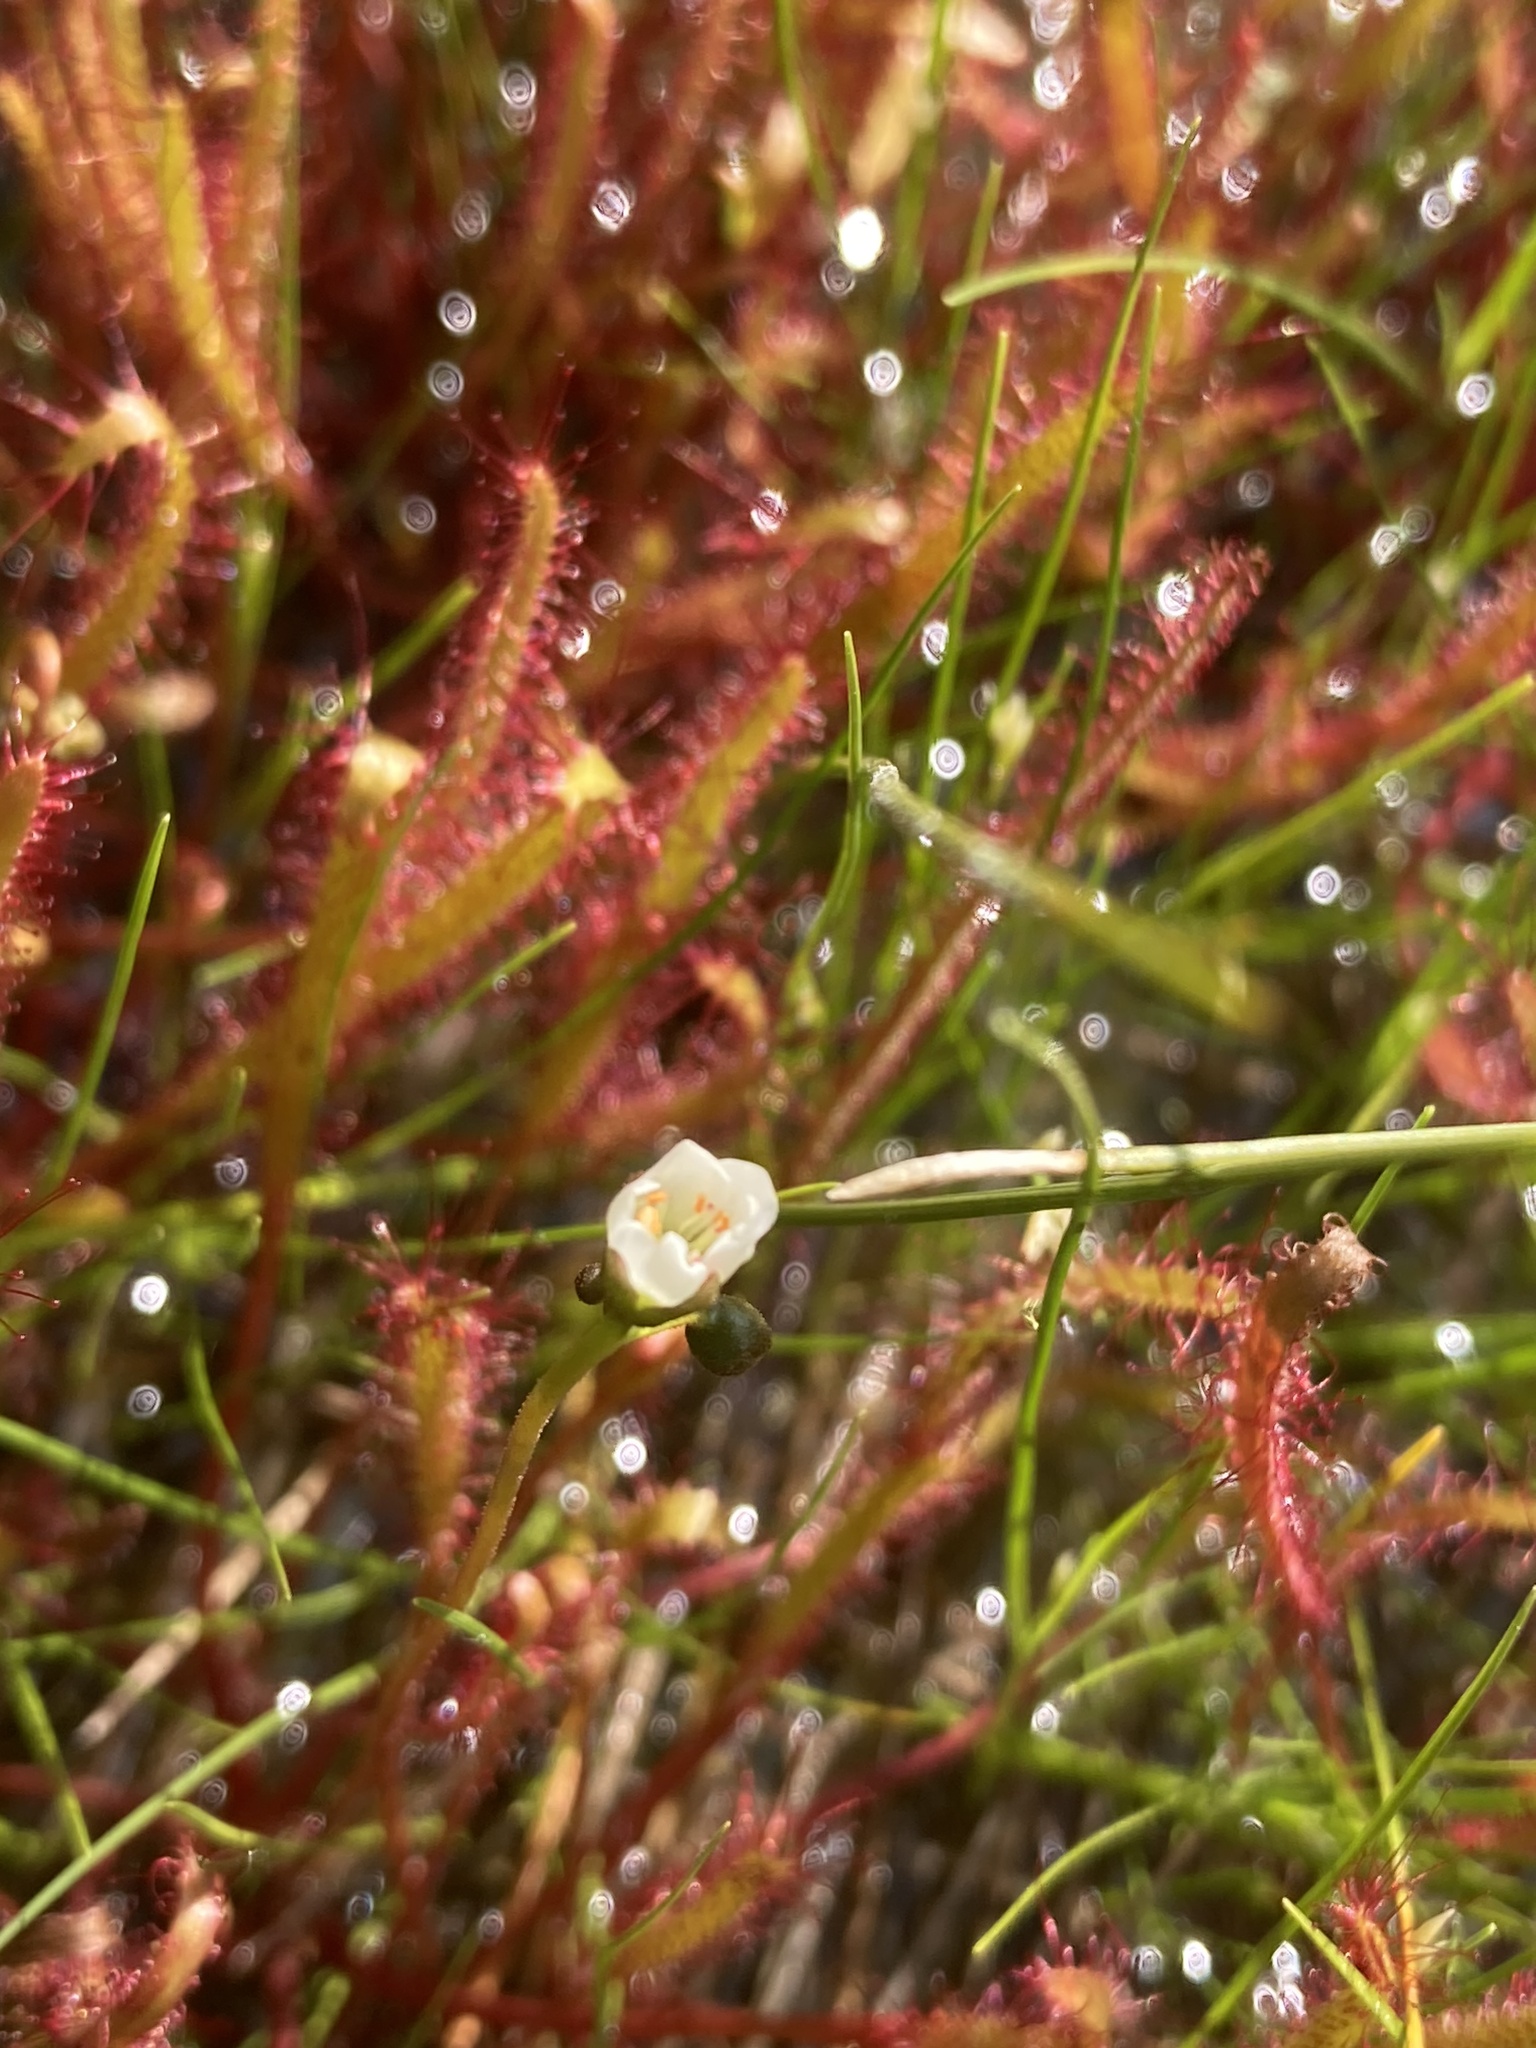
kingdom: Plantae
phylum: Tracheophyta
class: Magnoliopsida
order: Caryophyllales
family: Droseraceae
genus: Drosera
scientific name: Drosera linearis
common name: Linear-leaved sundew
